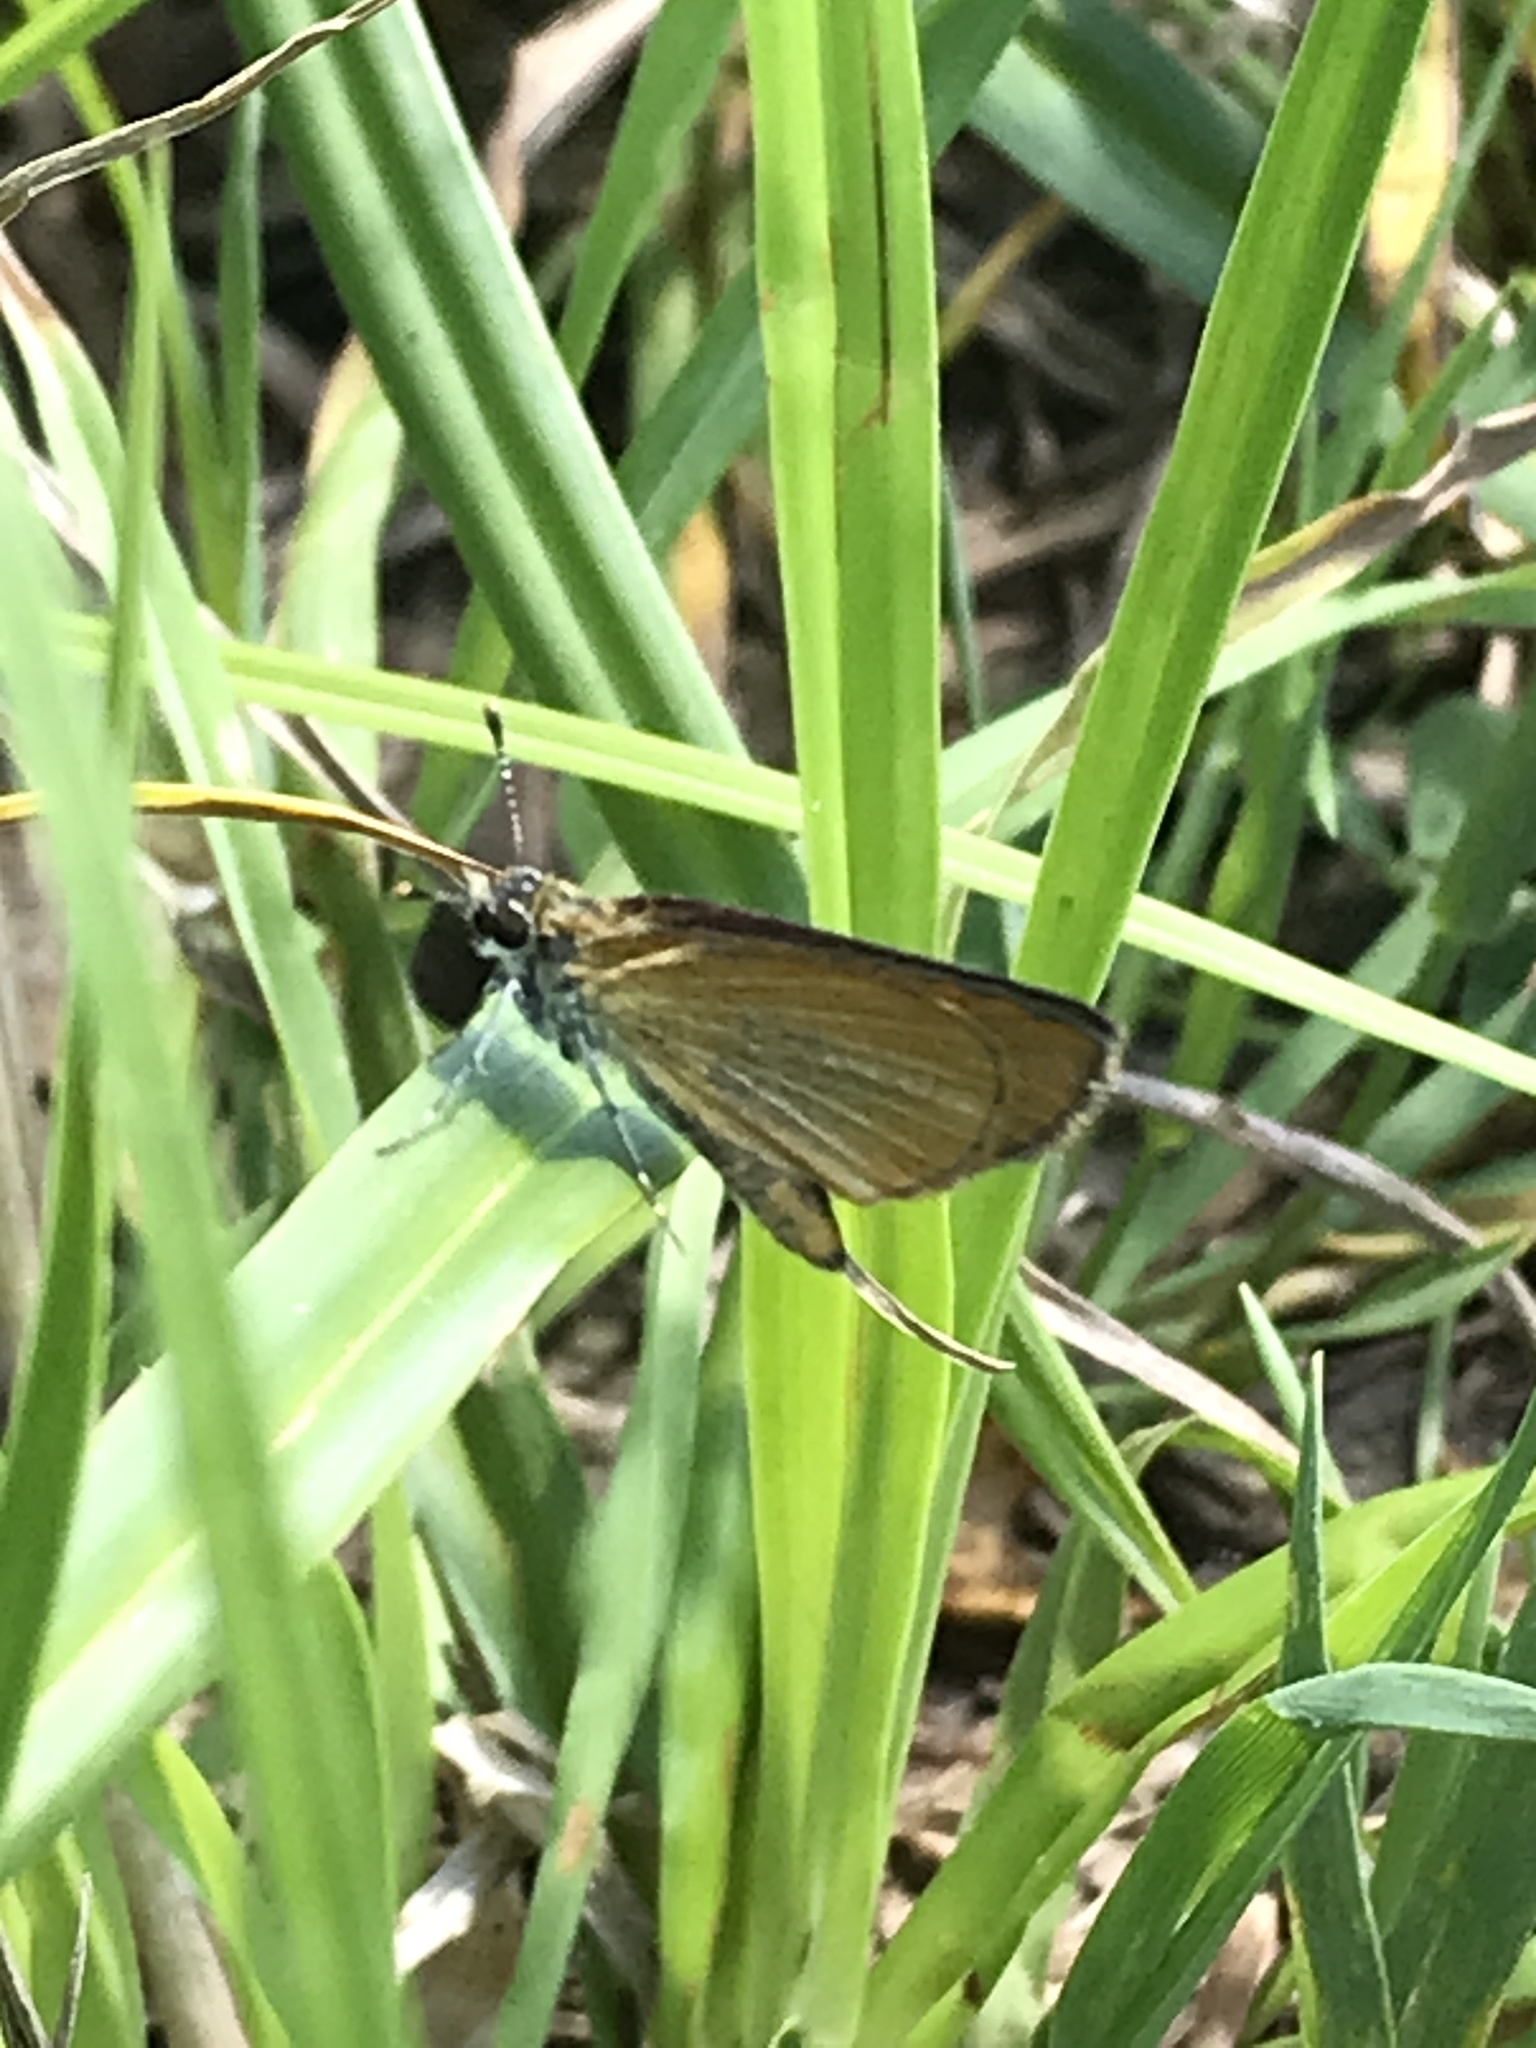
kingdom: Animalia
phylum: Arthropoda
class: Insecta
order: Lepidoptera
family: Hesperiidae
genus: Ancyloxypha
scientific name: Ancyloxypha numitor
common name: Least skipper
